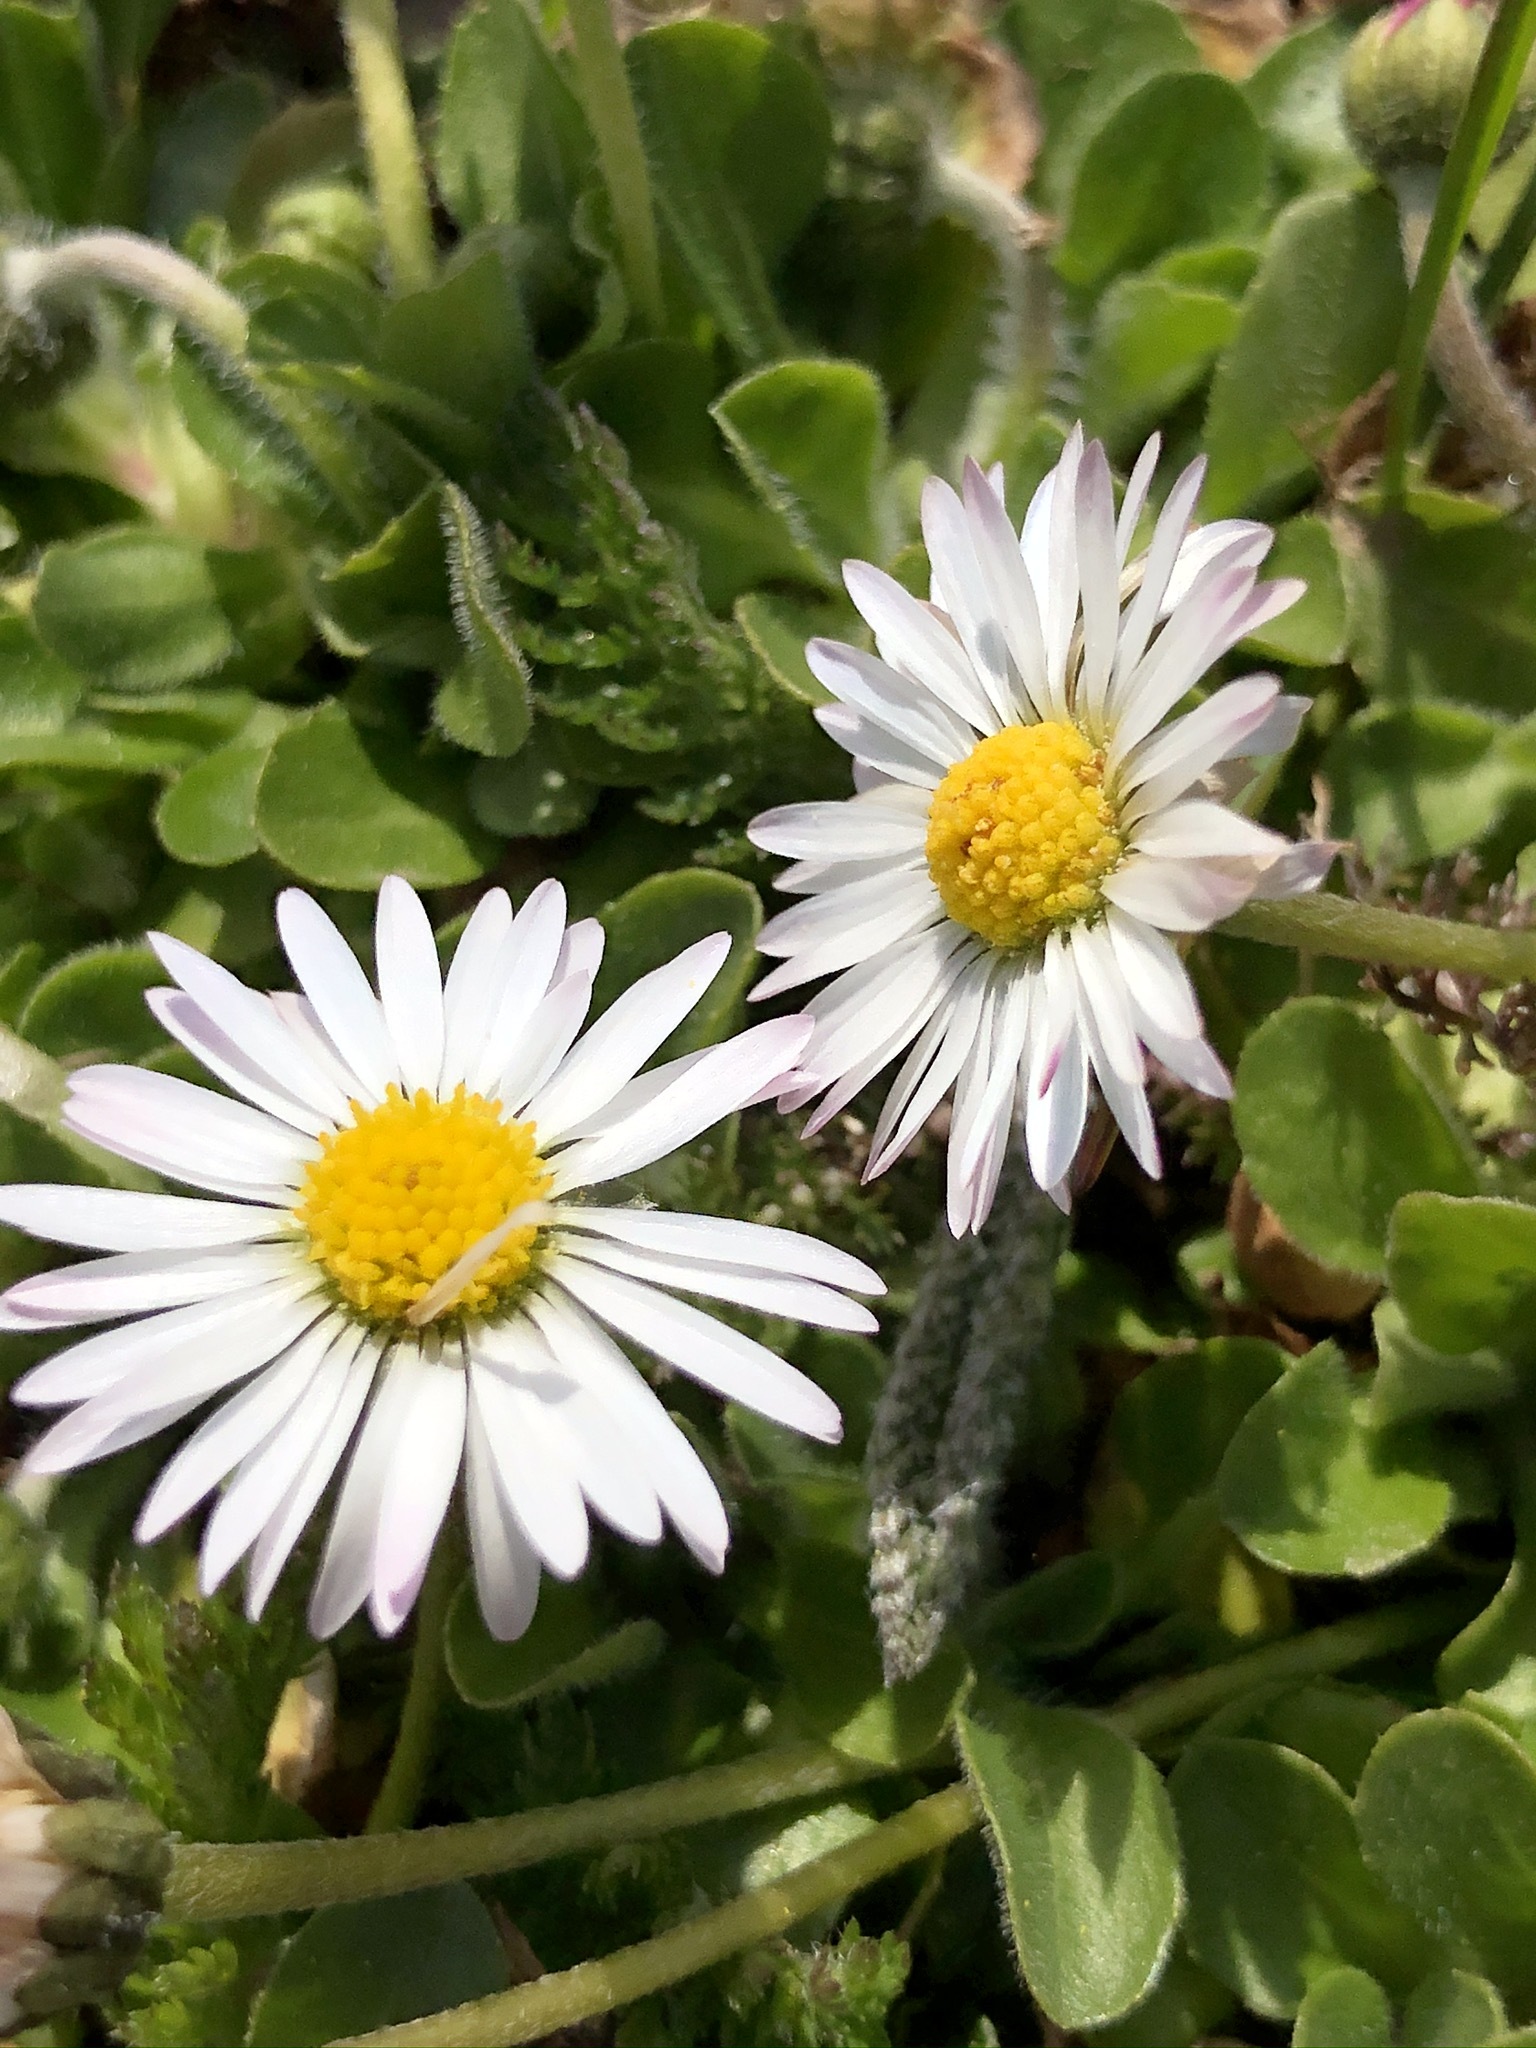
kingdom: Plantae
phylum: Tracheophyta
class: Magnoliopsida
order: Asterales
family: Asteraceae
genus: Bellis
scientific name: Bellis perennis
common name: Lawndaisy
